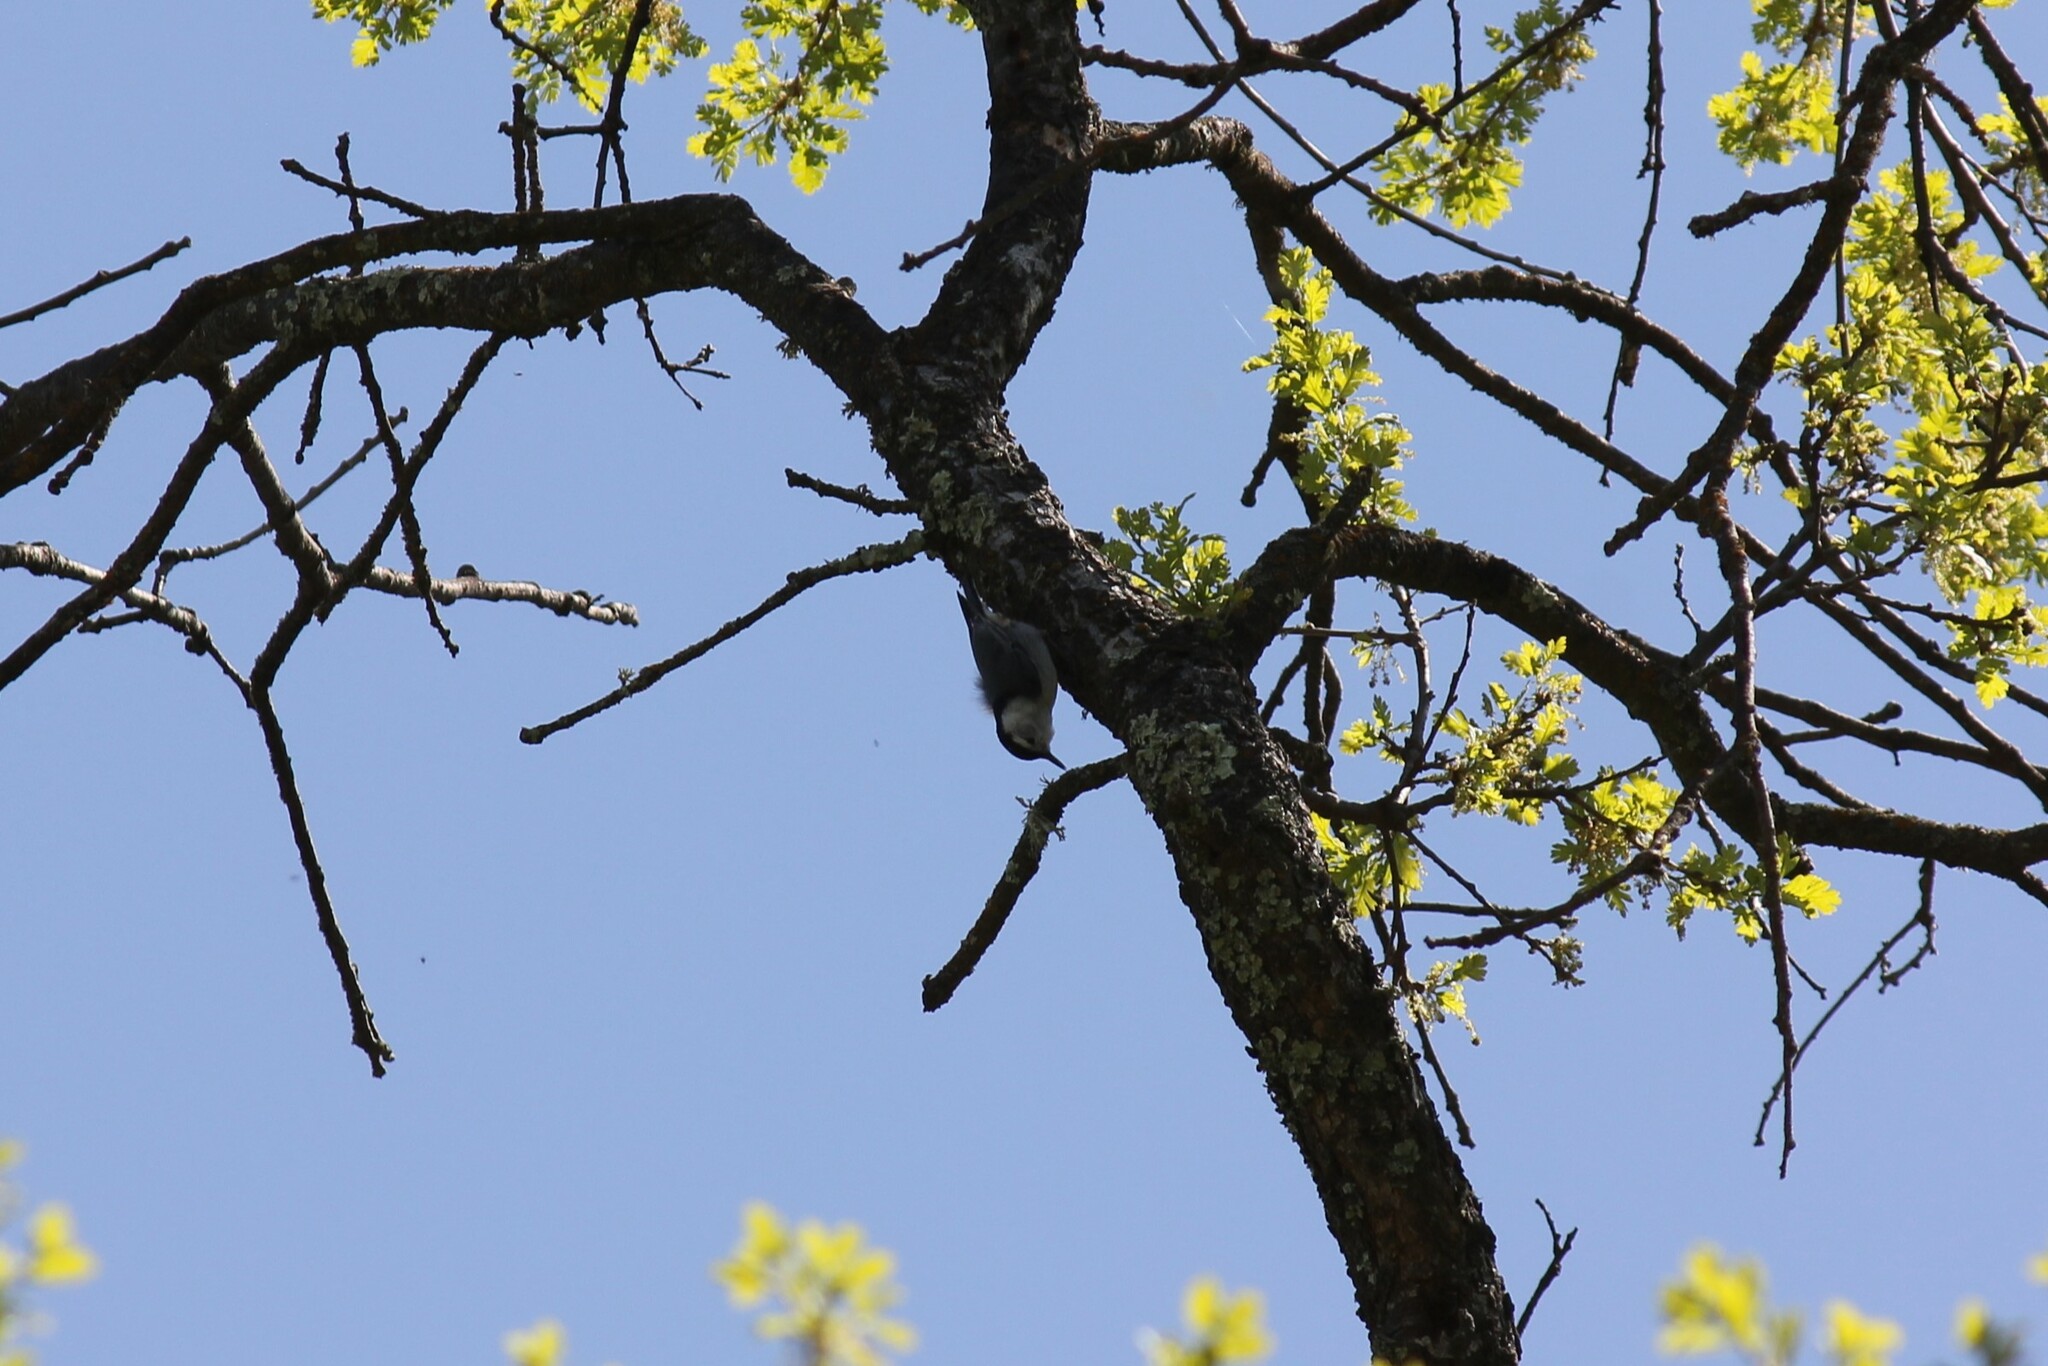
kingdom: Animalia
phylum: Chordata
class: Aves
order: Passeriformes
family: Sittidae
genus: Sitta
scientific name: Sitta carolinensis
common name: White-breasted nuthatch
